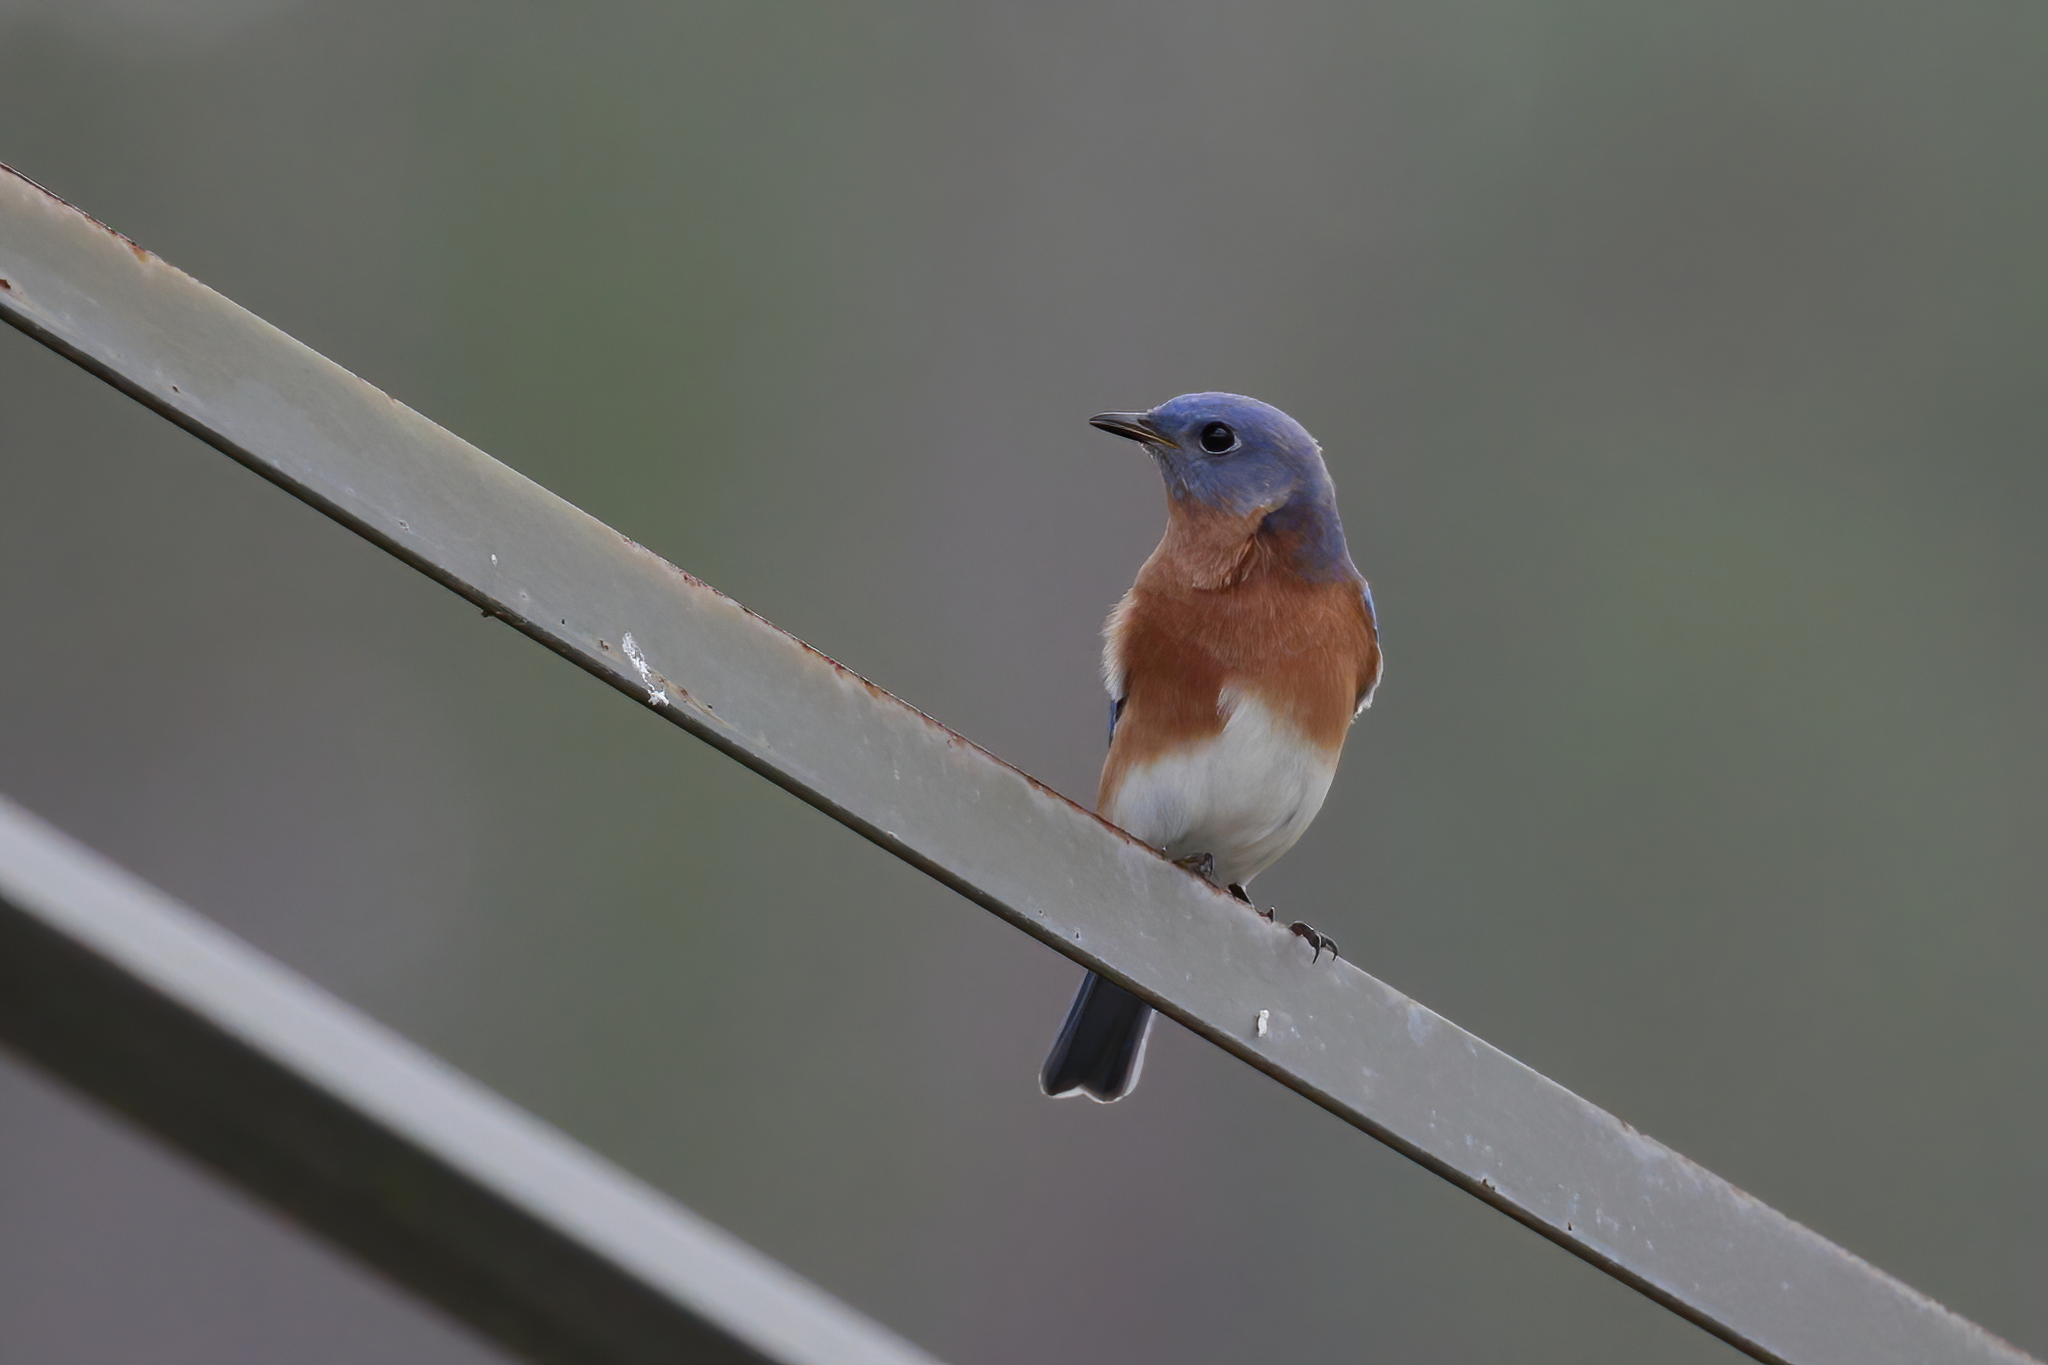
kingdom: Animalia
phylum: Chordata
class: Aves
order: Passeriformes
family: Turdidae
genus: Sialia
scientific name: Sialia sialis
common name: Eastern bluebird
